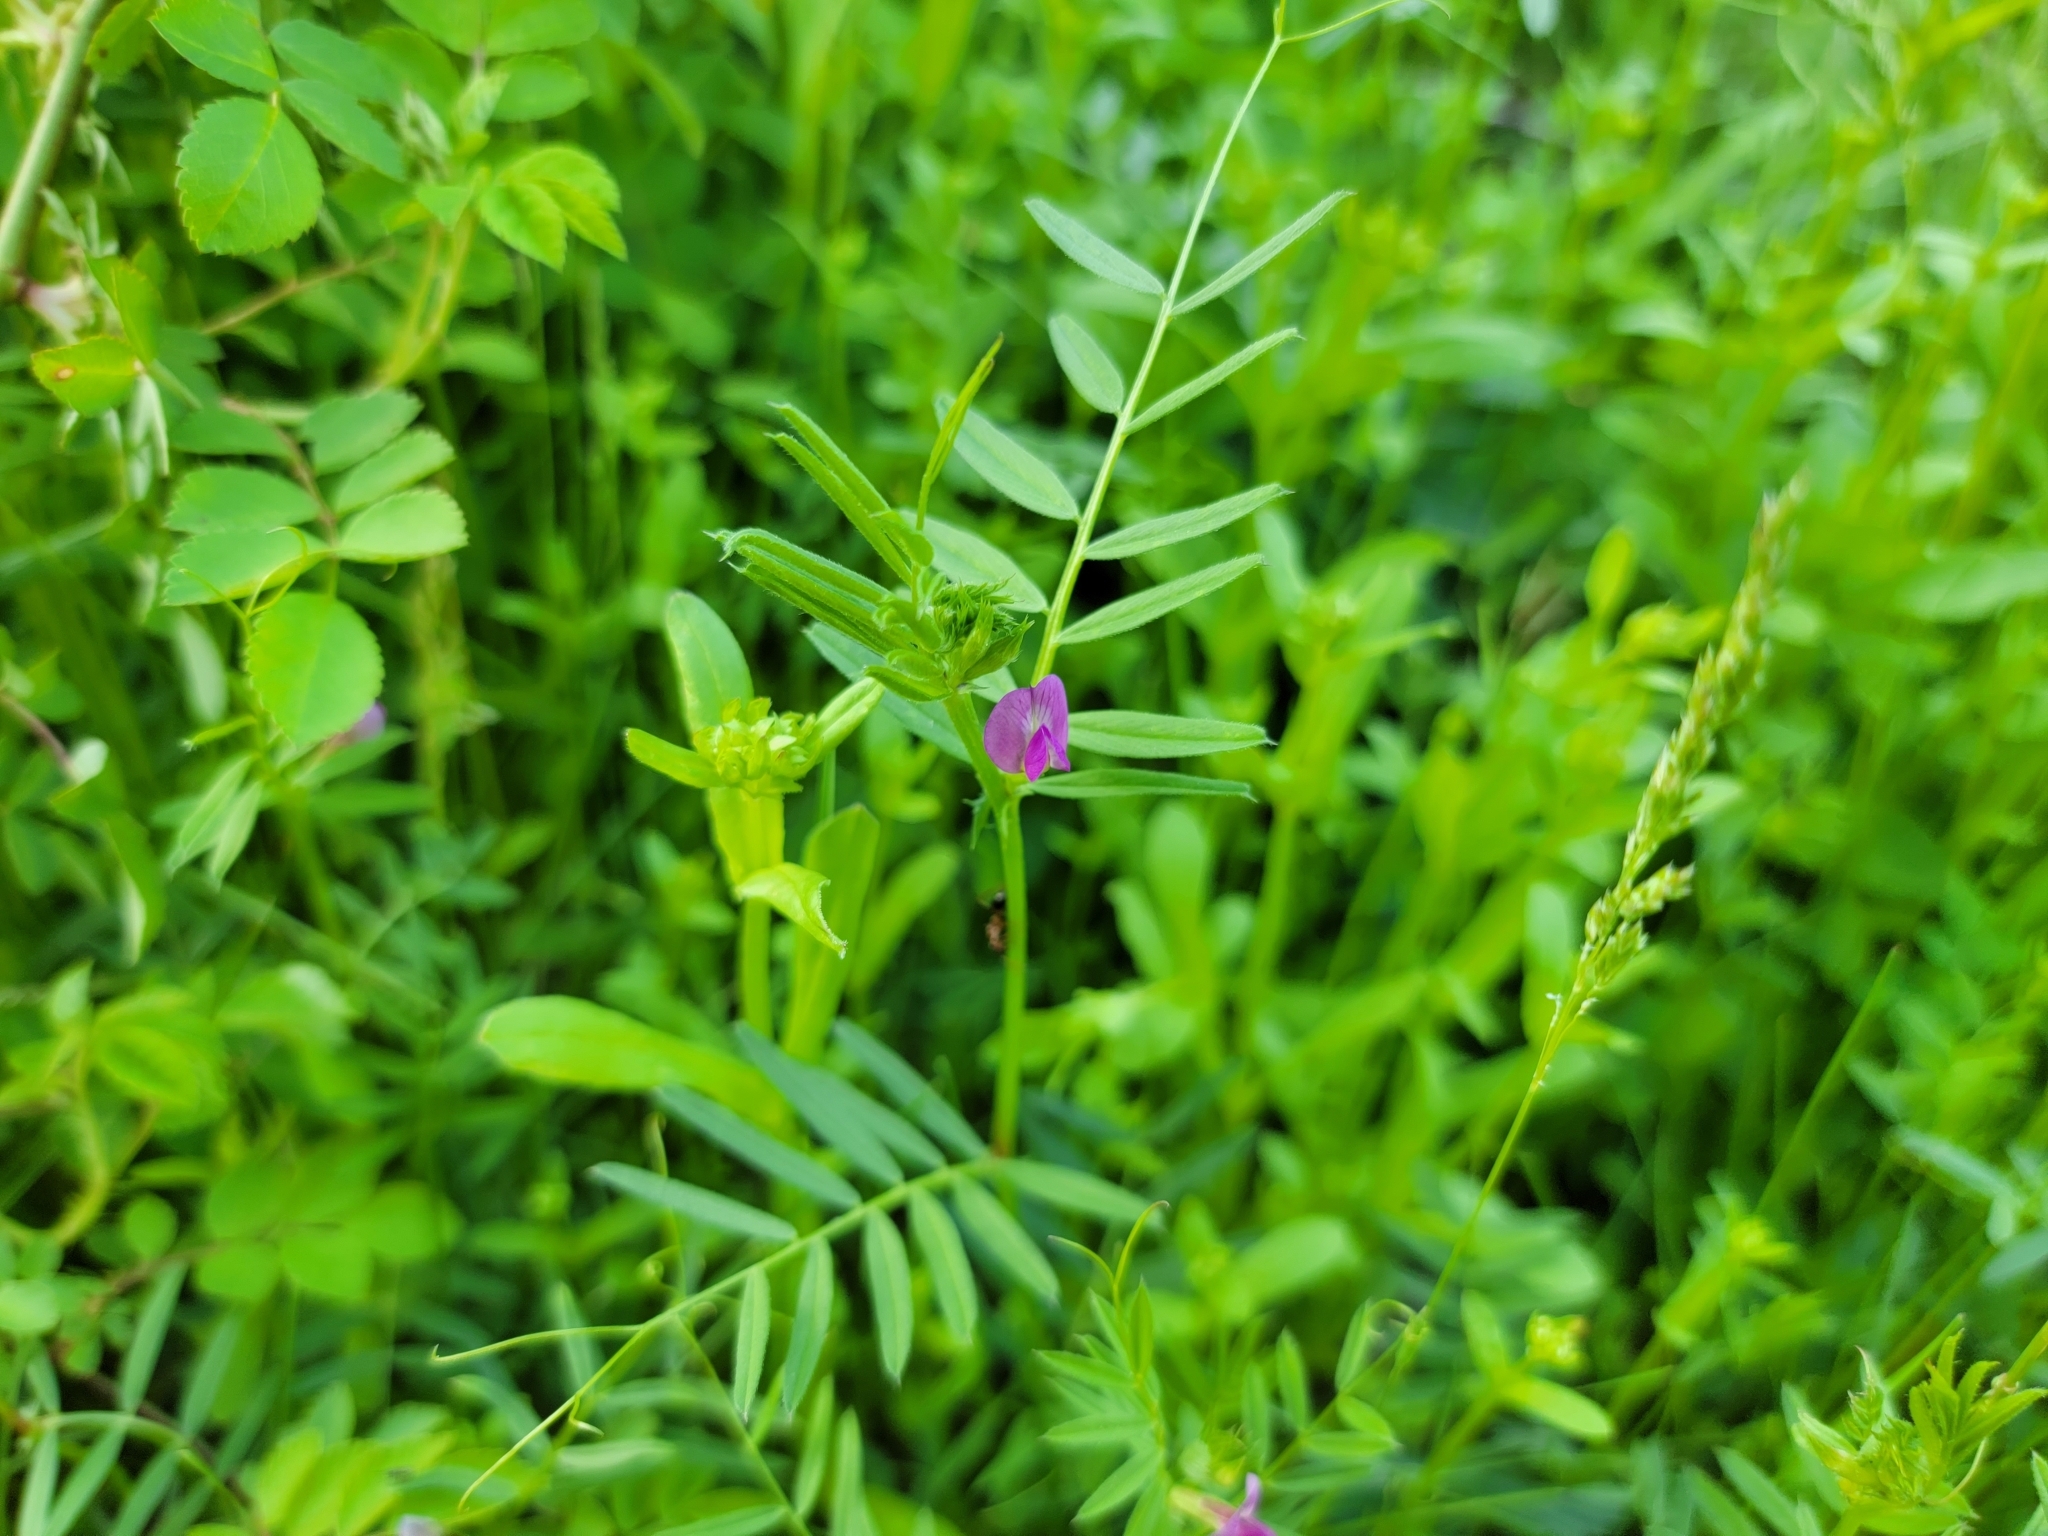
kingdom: Plantae
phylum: Tracheophyta
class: Magnoliopsida
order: Fabales
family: Fabaceae
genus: Vicia
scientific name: Vicia sativa
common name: Garden vetch
